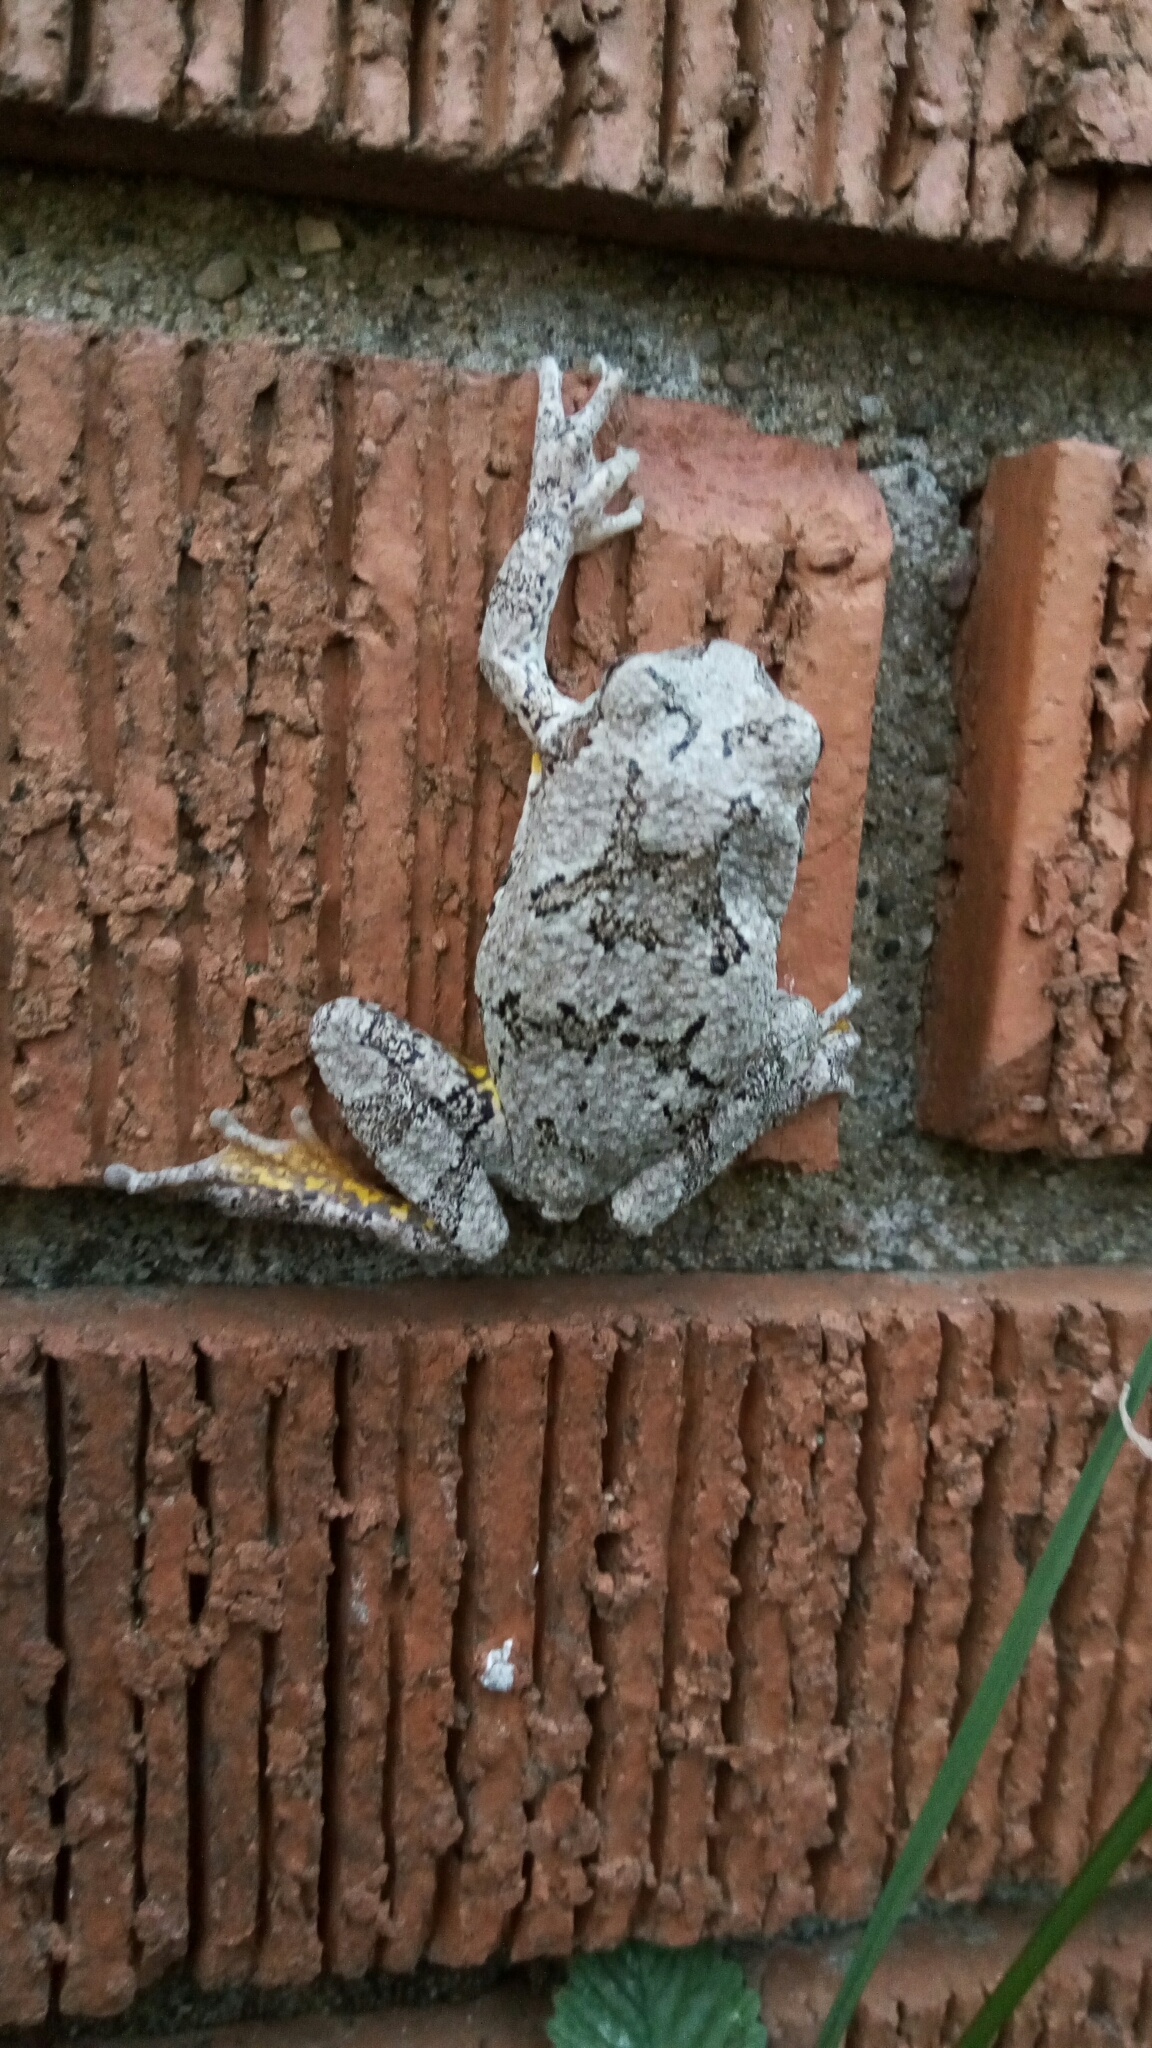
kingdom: Animalia
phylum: Chordata
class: Amphibia
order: Anura
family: Hylidae
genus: Hyla
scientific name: Hyla
